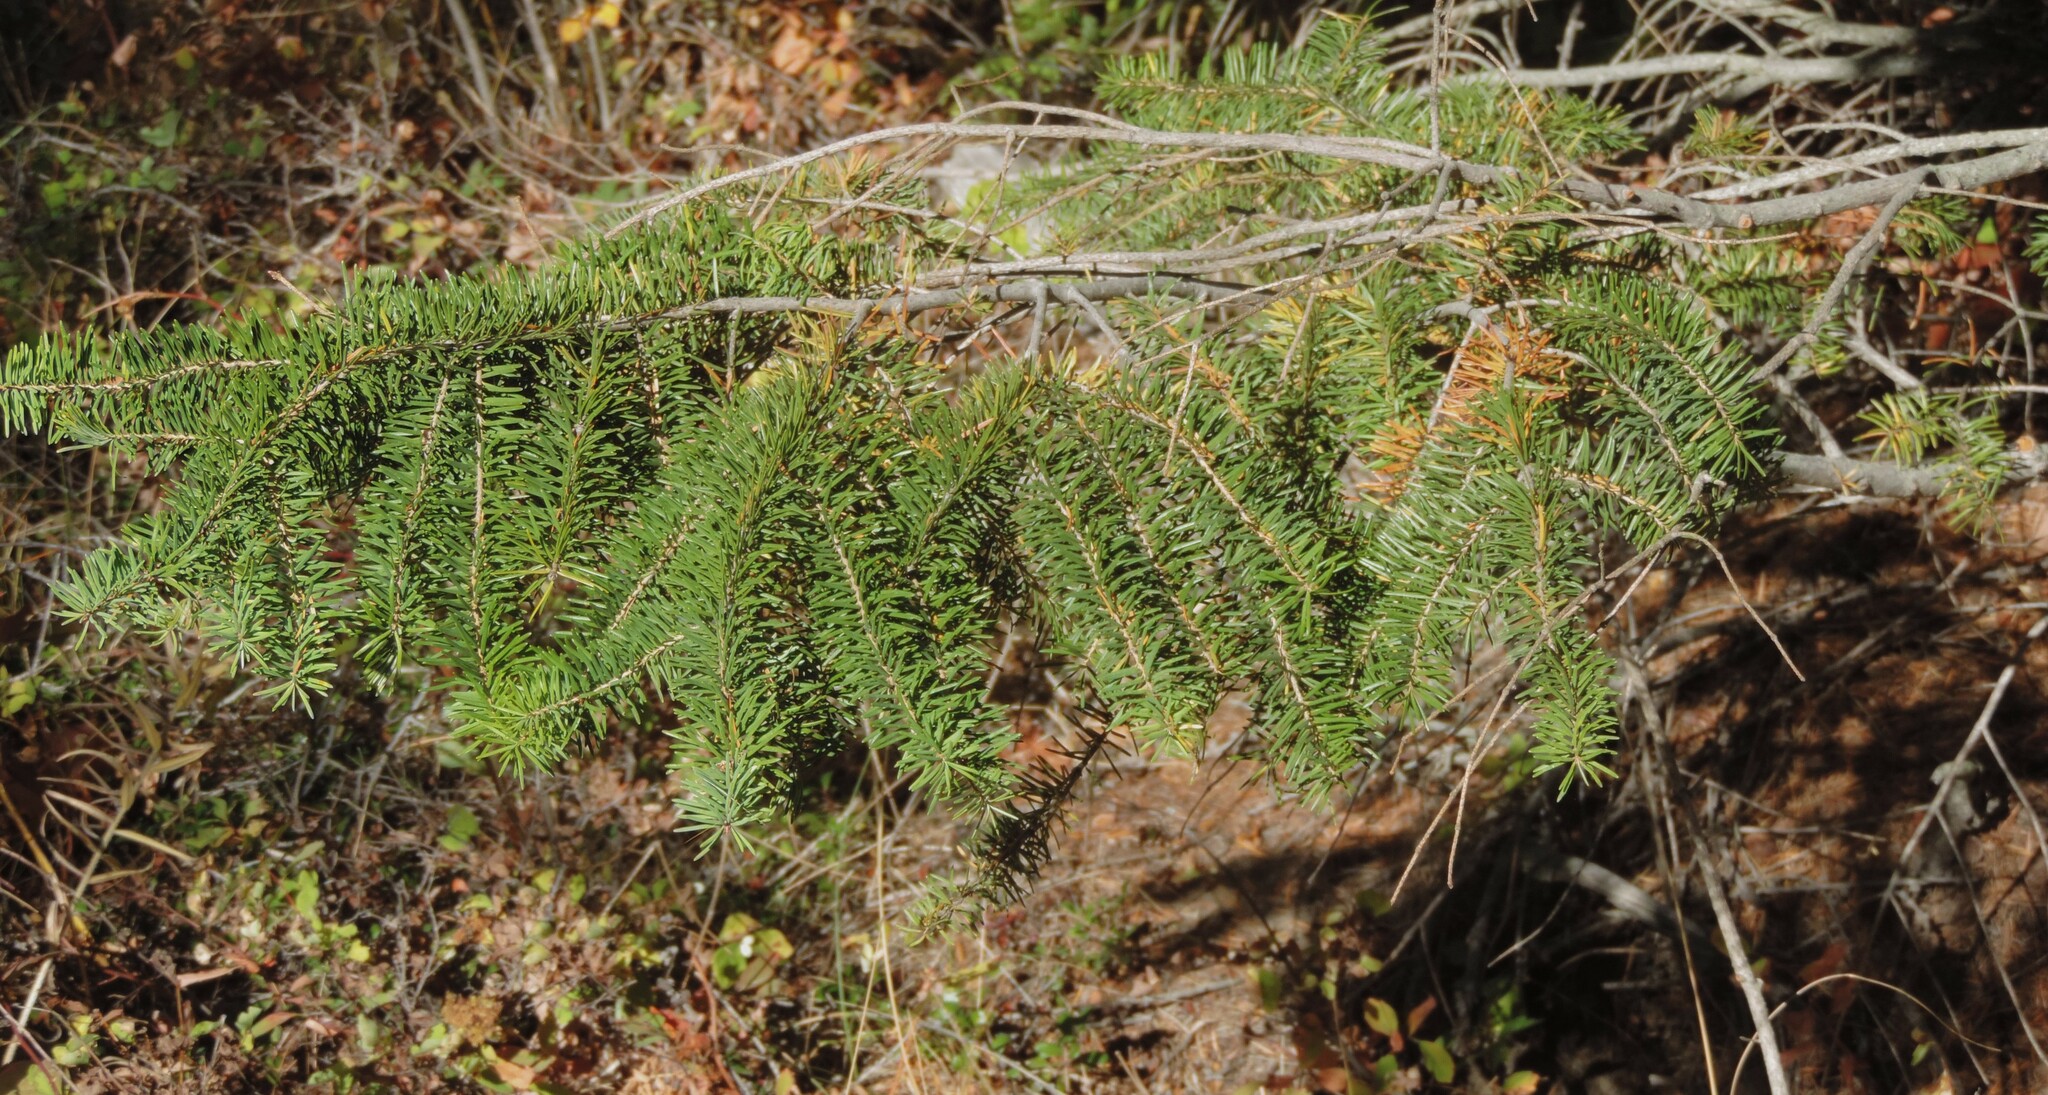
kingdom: Plantae
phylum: Tracheophyta
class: Pinopsida
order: Pinales
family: Pinaceae
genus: Pseudotsuga
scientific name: Pseudotsuga menziesii
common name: Douglas fir
